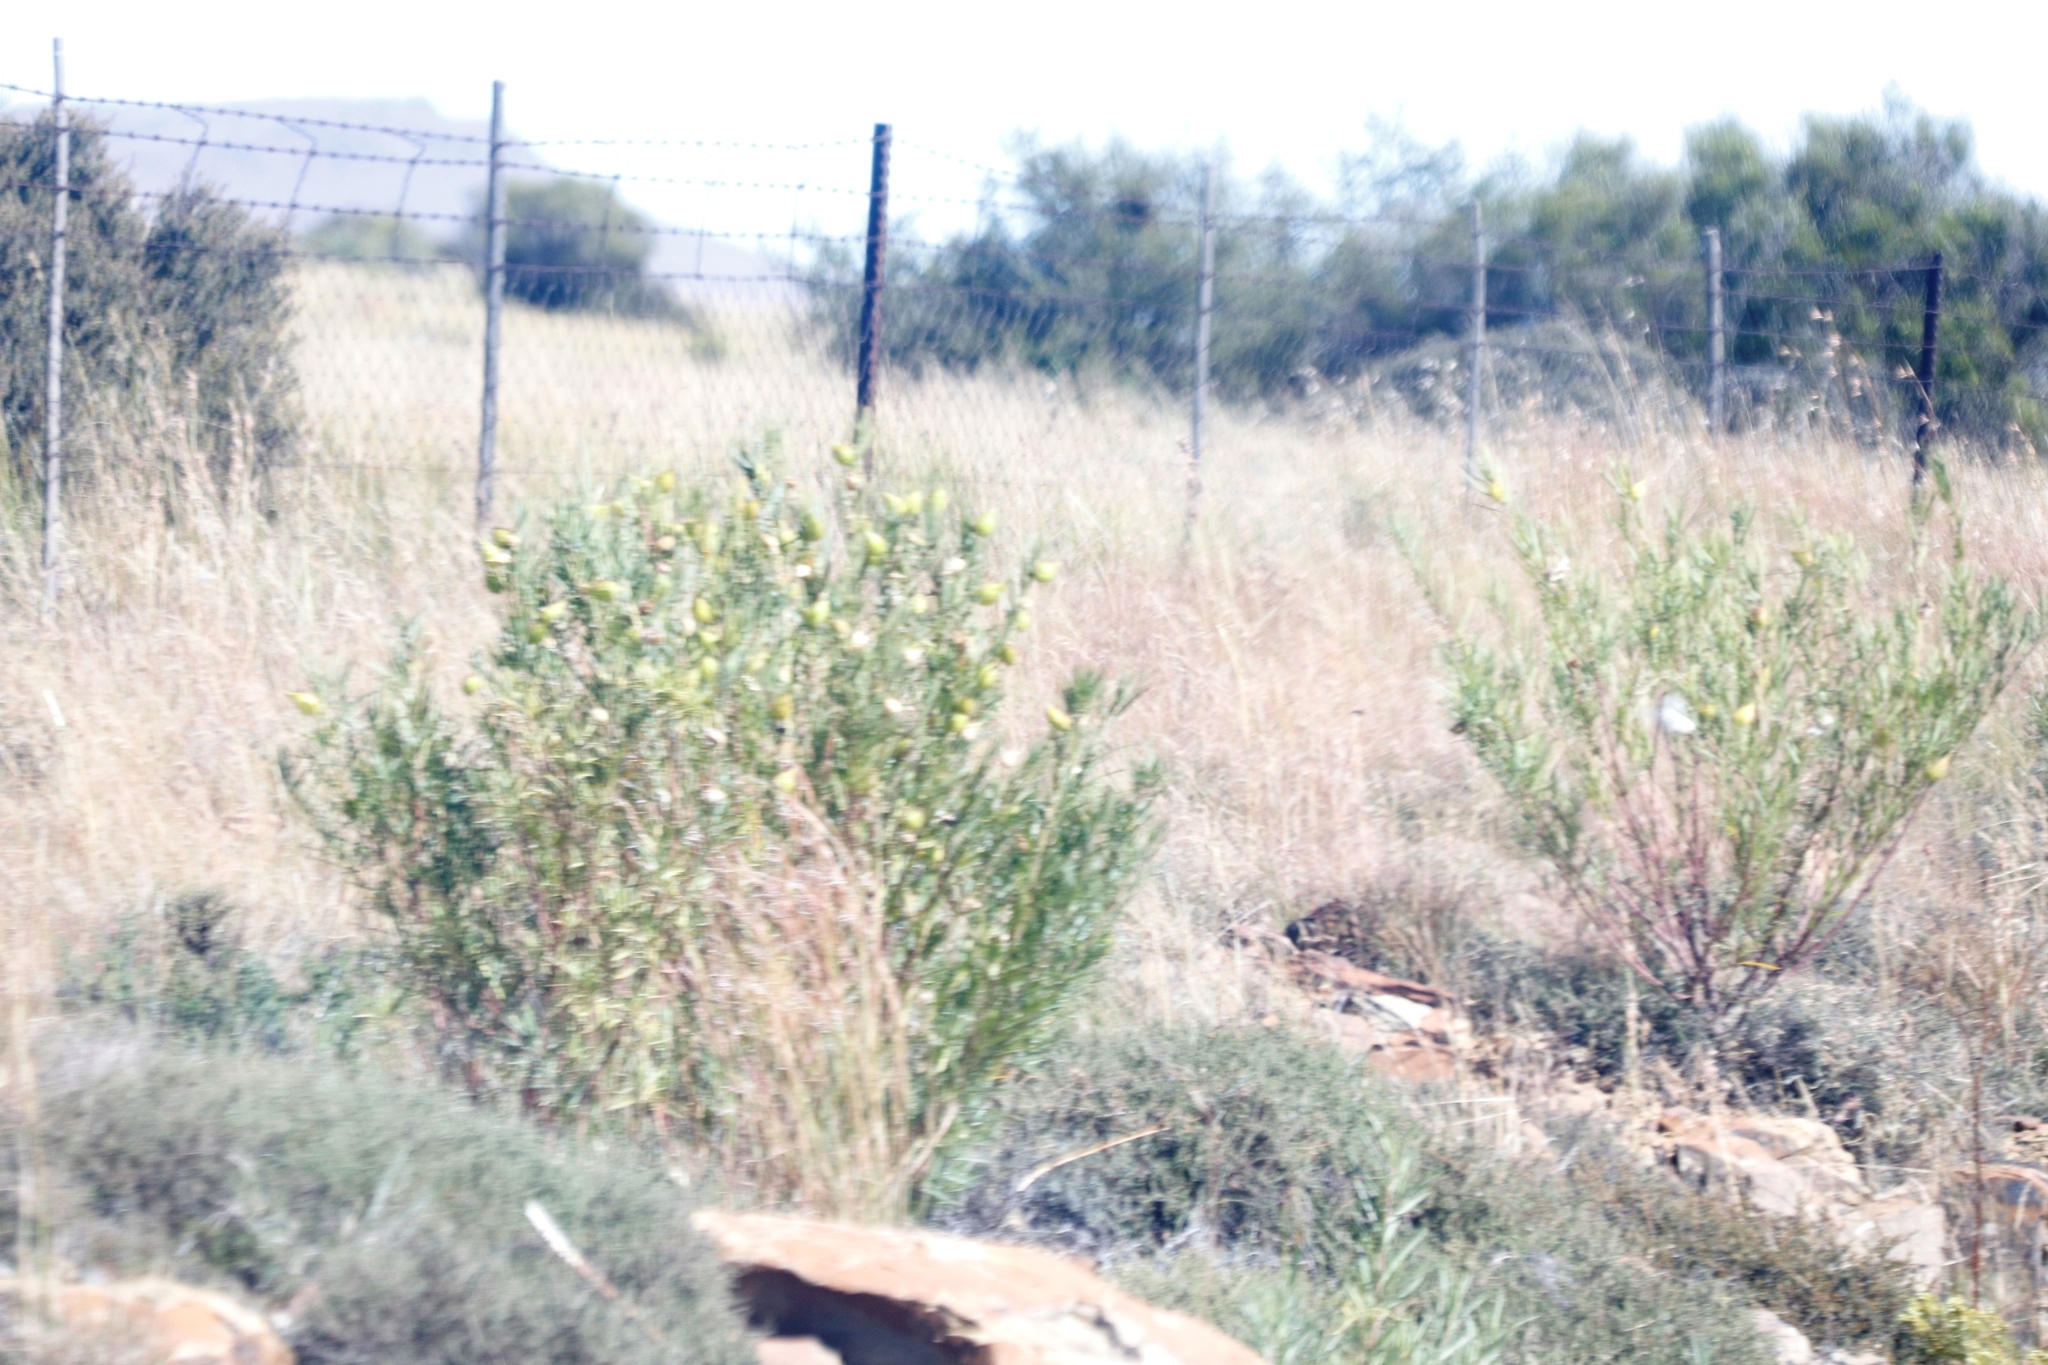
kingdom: Plantae
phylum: Tracheophyta
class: Magnoliopsida
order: Gentianales
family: Apocynaceae
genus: Gomphocarpus
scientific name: Gomphocarpus fruticosus
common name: Milkweed
